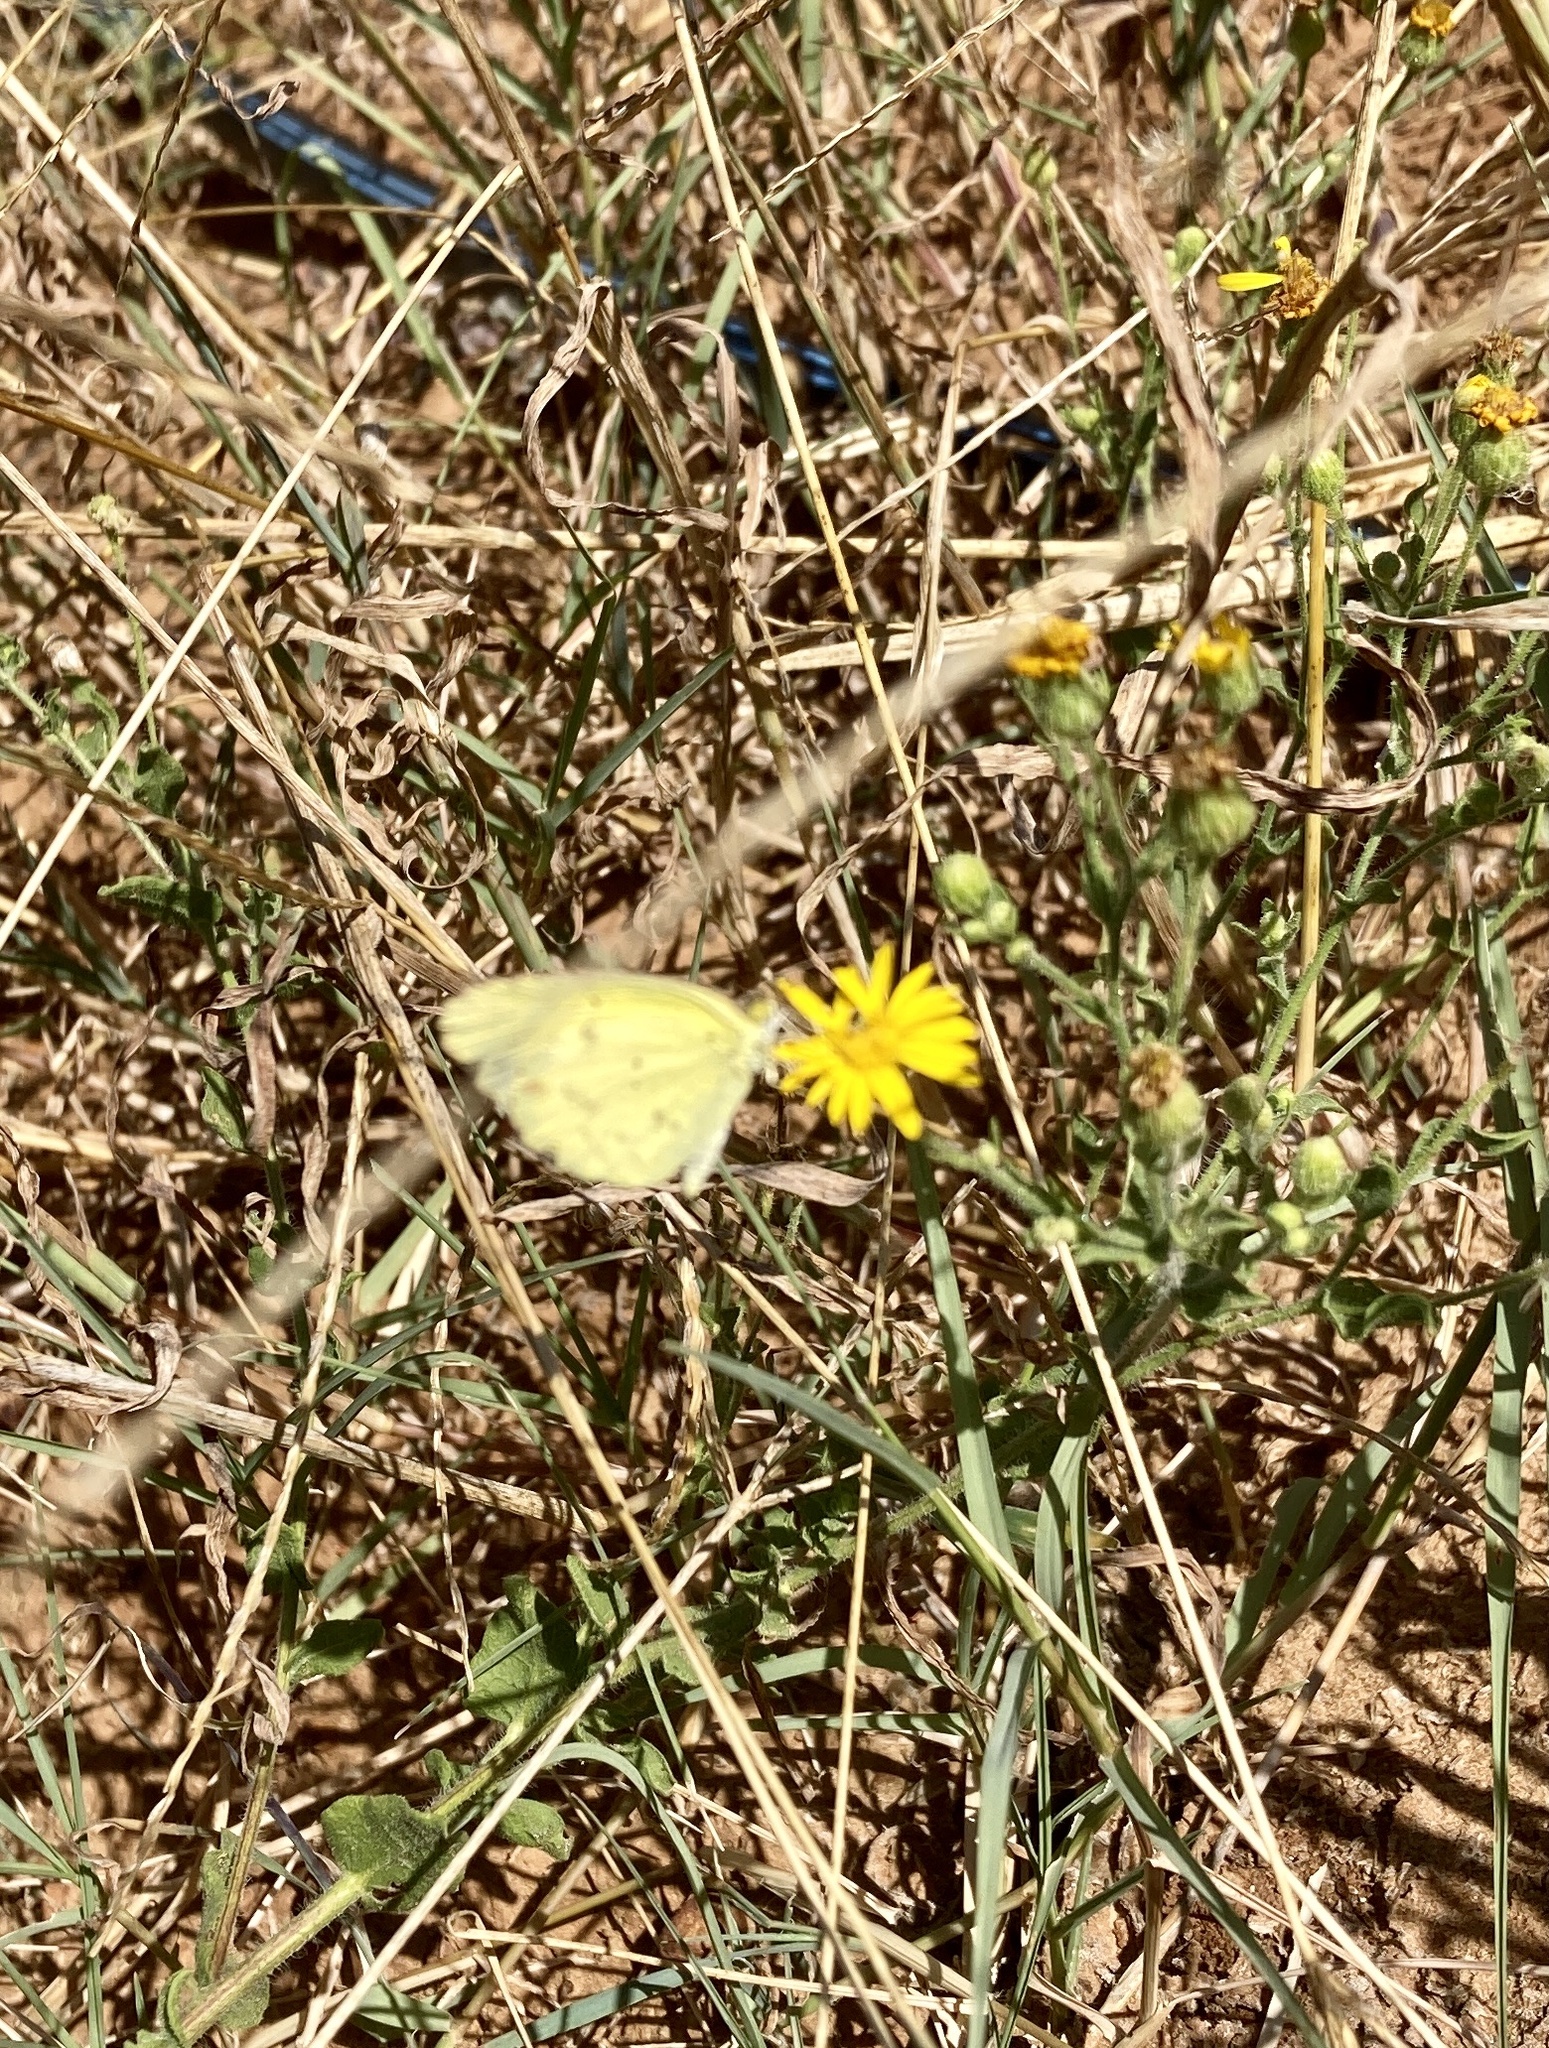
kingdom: Animalia
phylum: Arthropoda
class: Insecta
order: Lepidoptera
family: Pieridae
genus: Pyrisitia
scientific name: Pyrisitia lisa
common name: Little yellow
